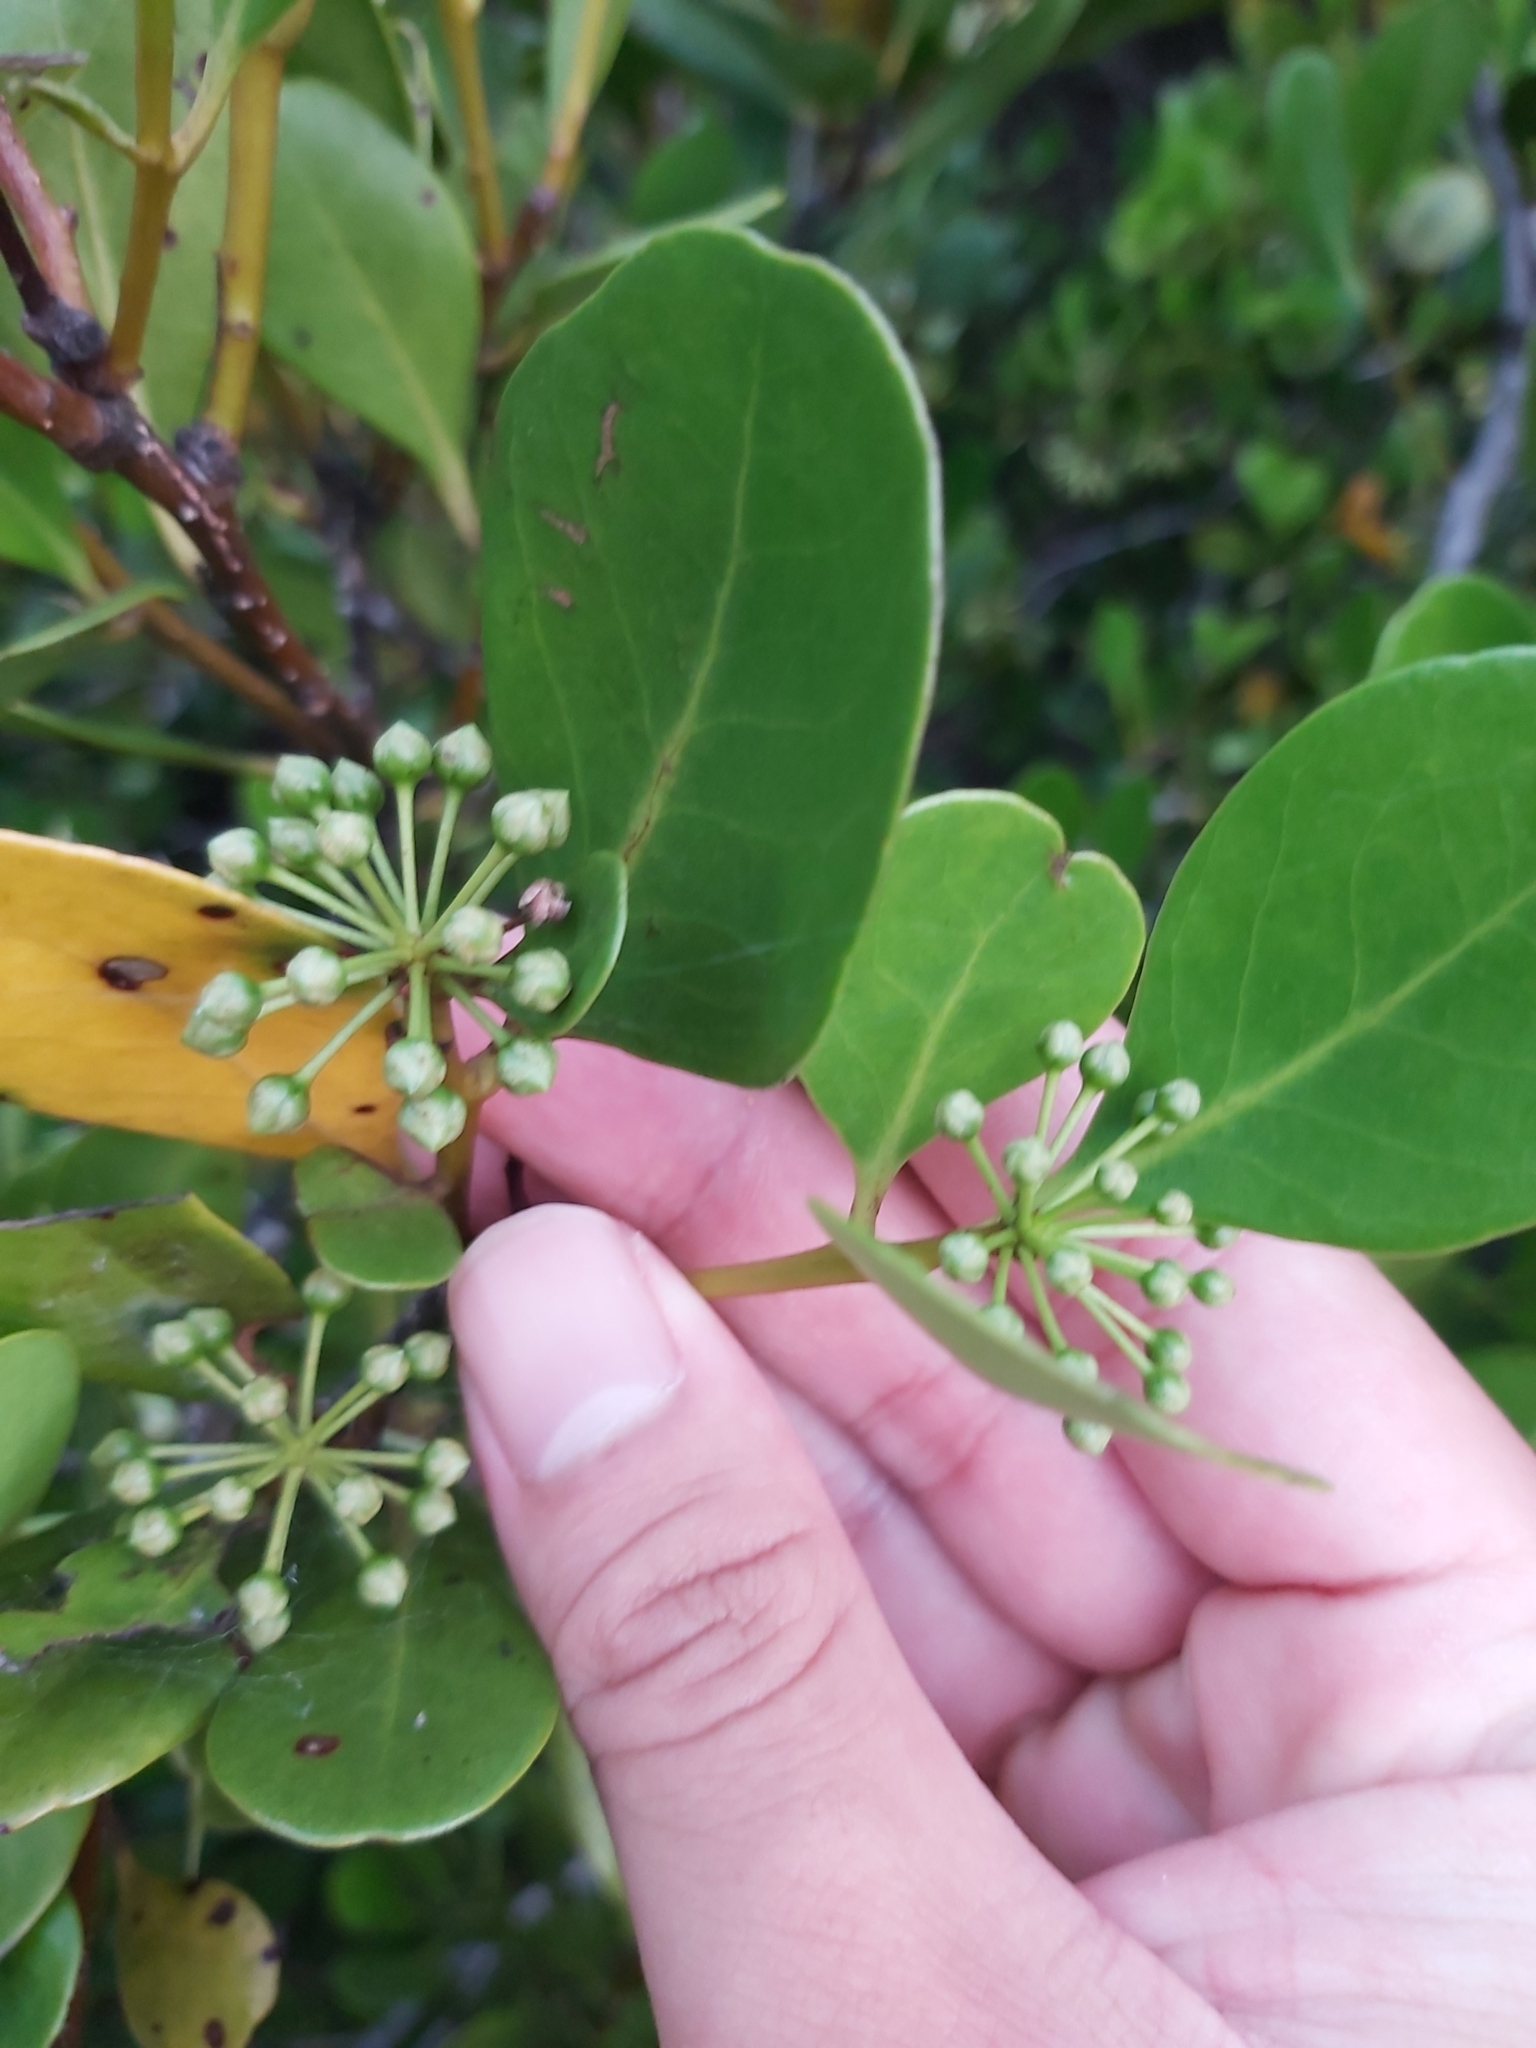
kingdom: Plantae
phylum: Tracheophyta
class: Magnoliopsida
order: Ericales
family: Primulaceae
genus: Aegiceras
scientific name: Aegiceras corniculatum
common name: River mangrove
